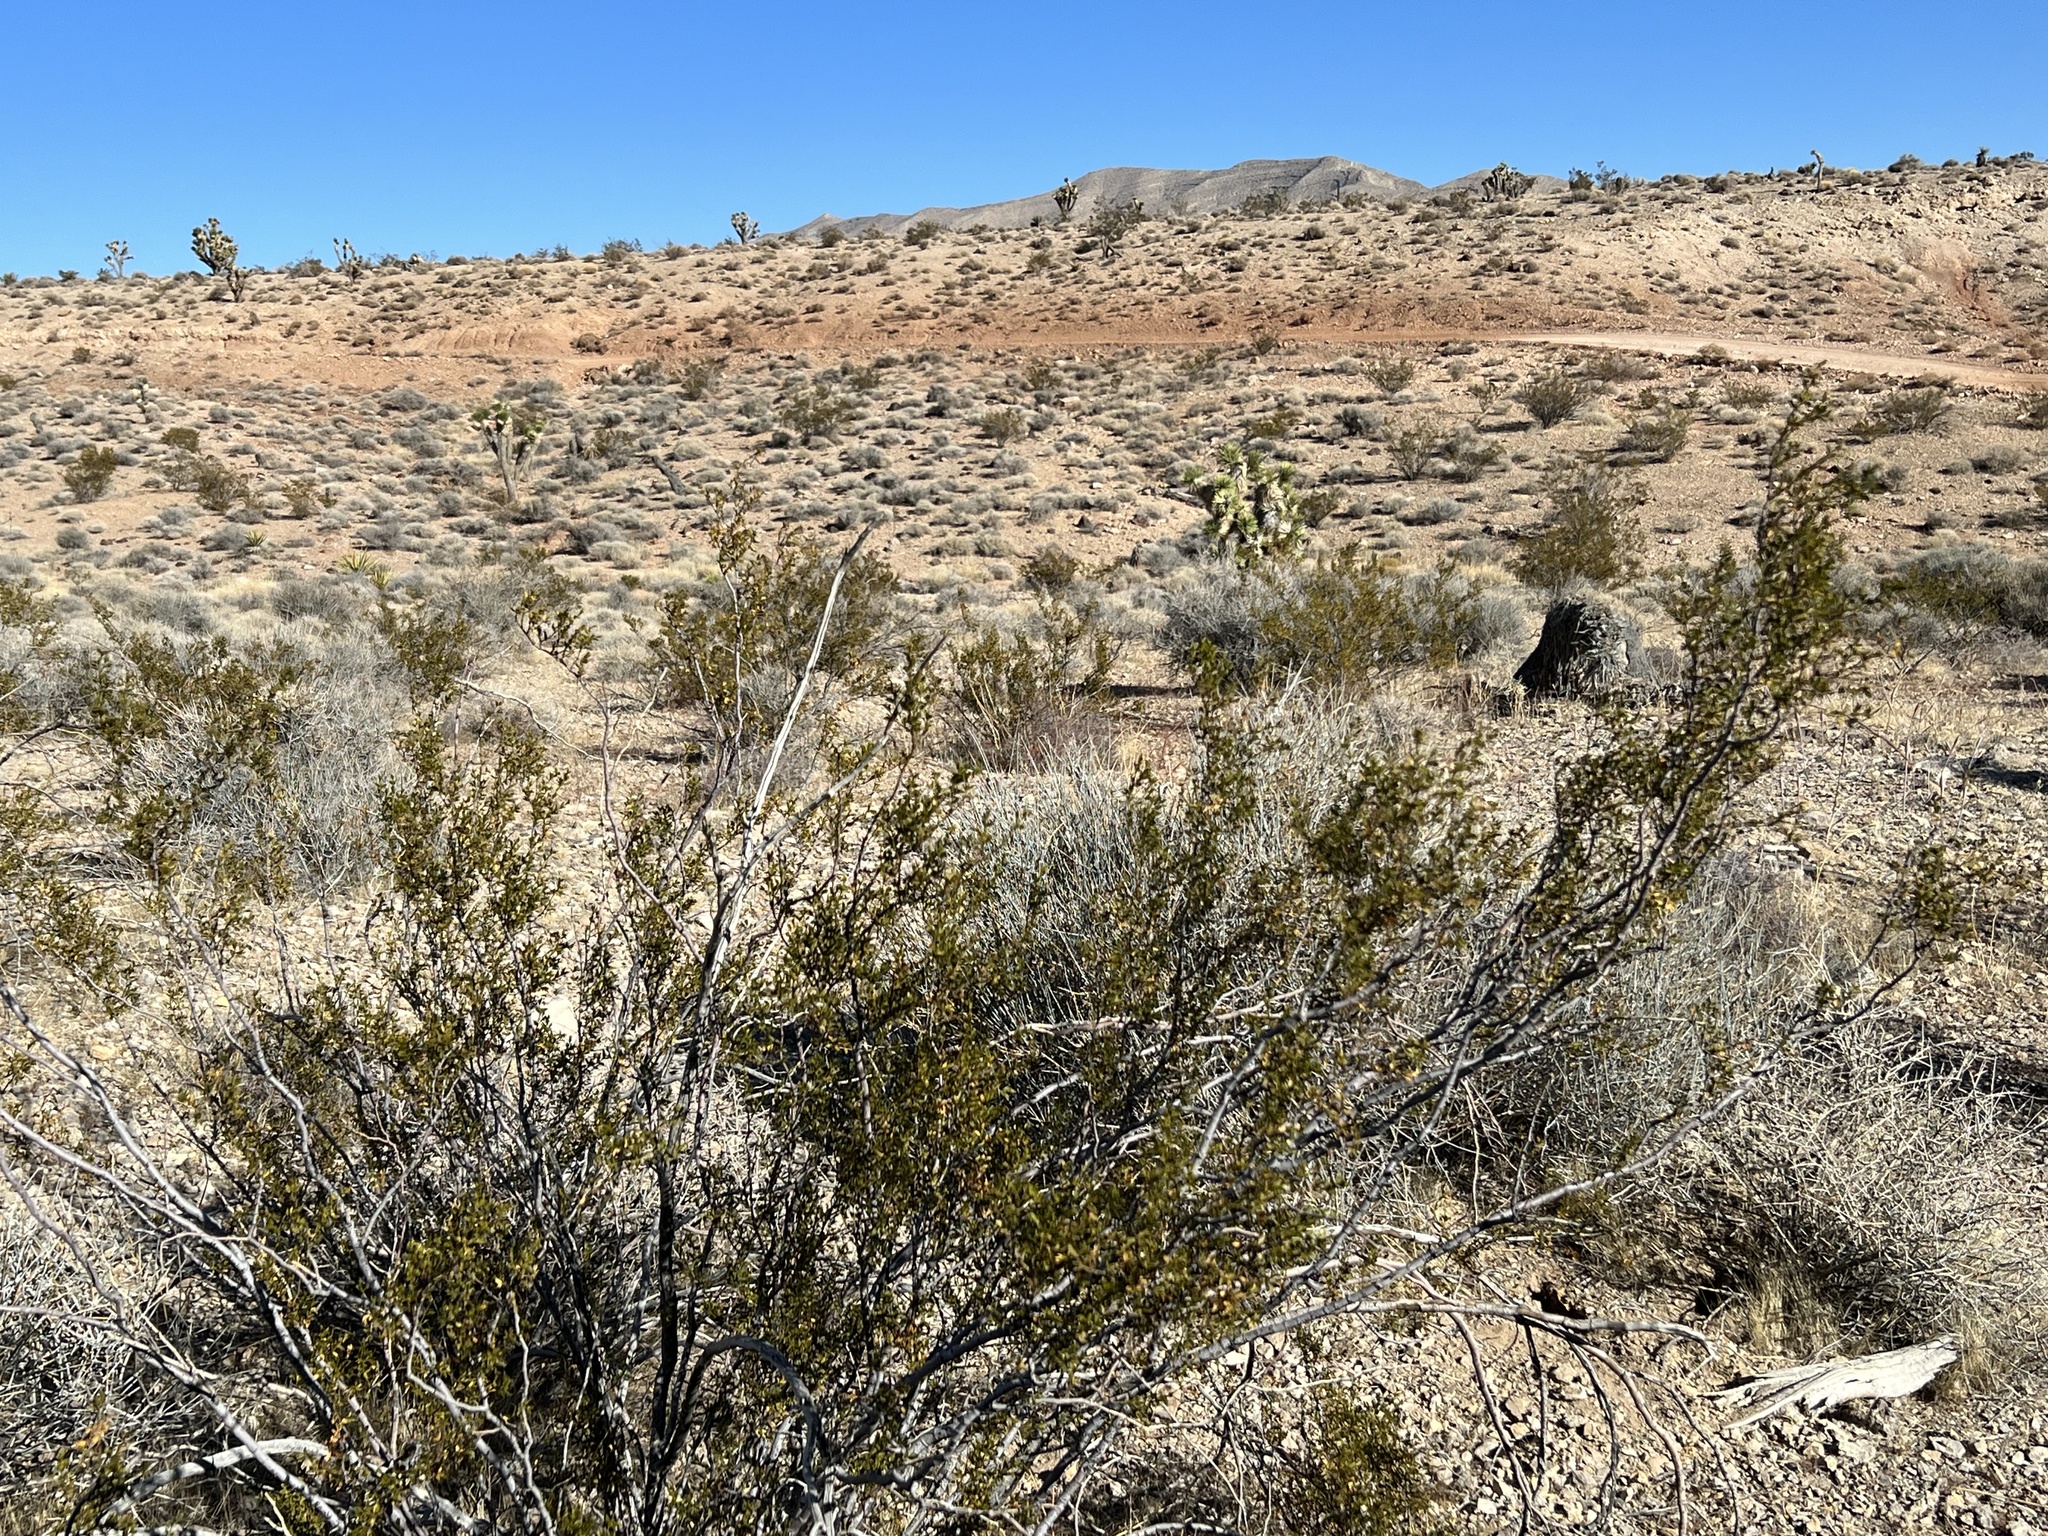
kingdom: Plantae
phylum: Tracheophyta
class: Magnoliopsida
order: Zygophyllales
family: Zygophyllaceae
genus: Larrea
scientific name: Larrea tridentata
